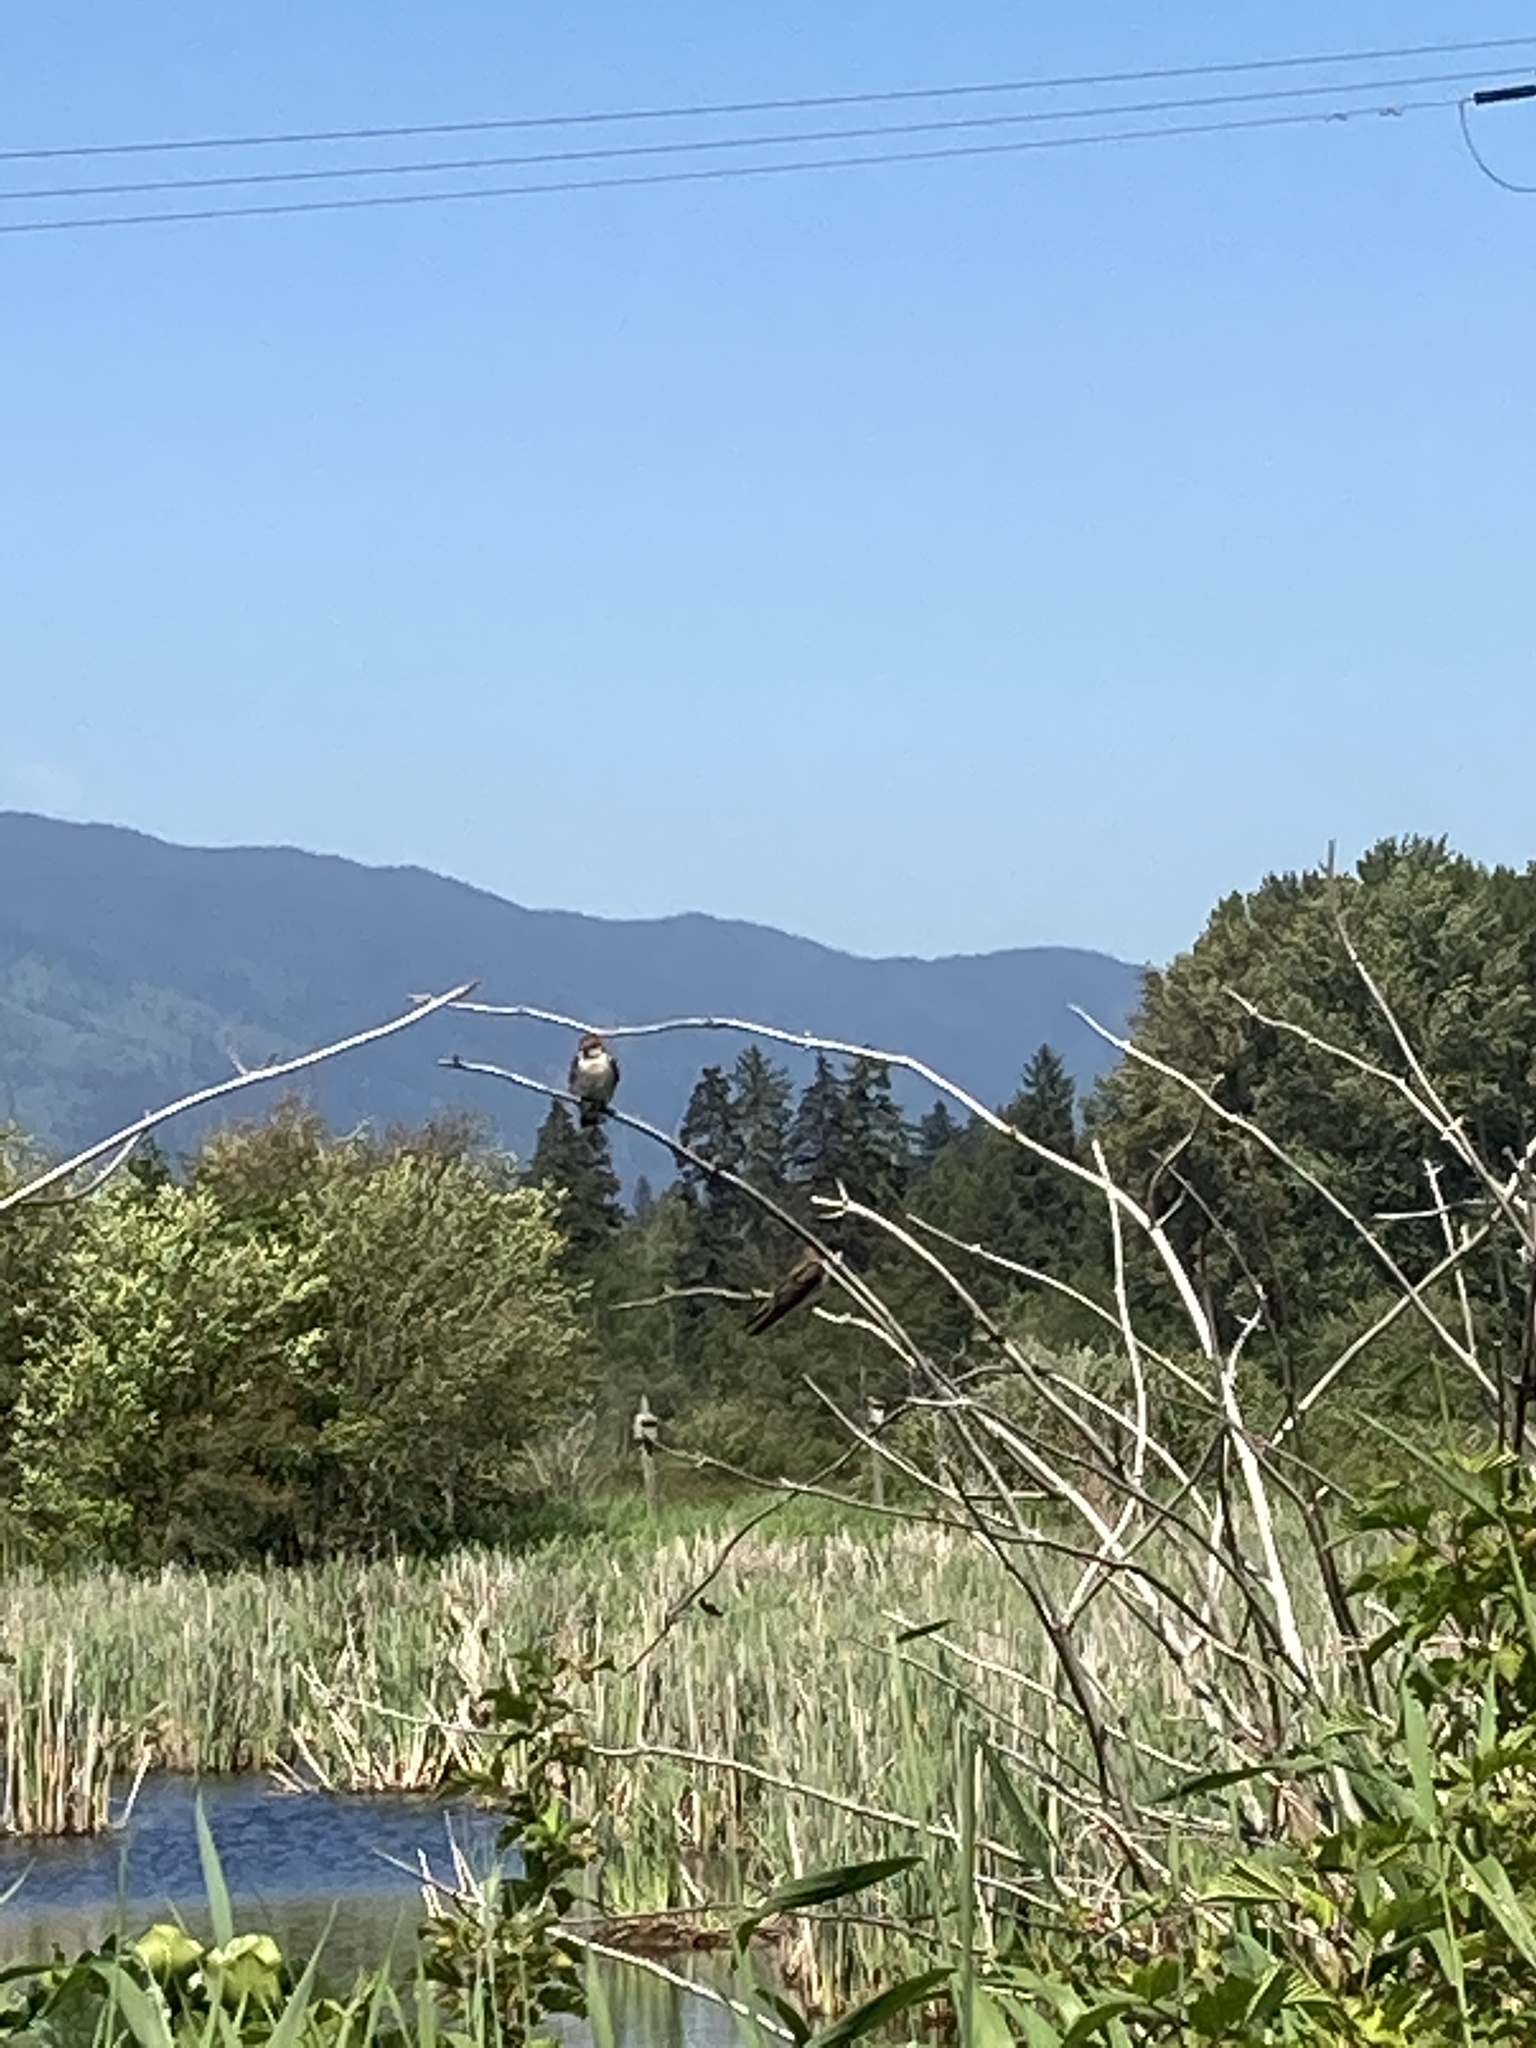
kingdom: Animalia
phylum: Chordata
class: Aves
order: Passeriformes
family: Hirundinidae
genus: Stelgidopteryx
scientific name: Stelgidopteryx serripennis
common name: Northern rough-winged swallow
